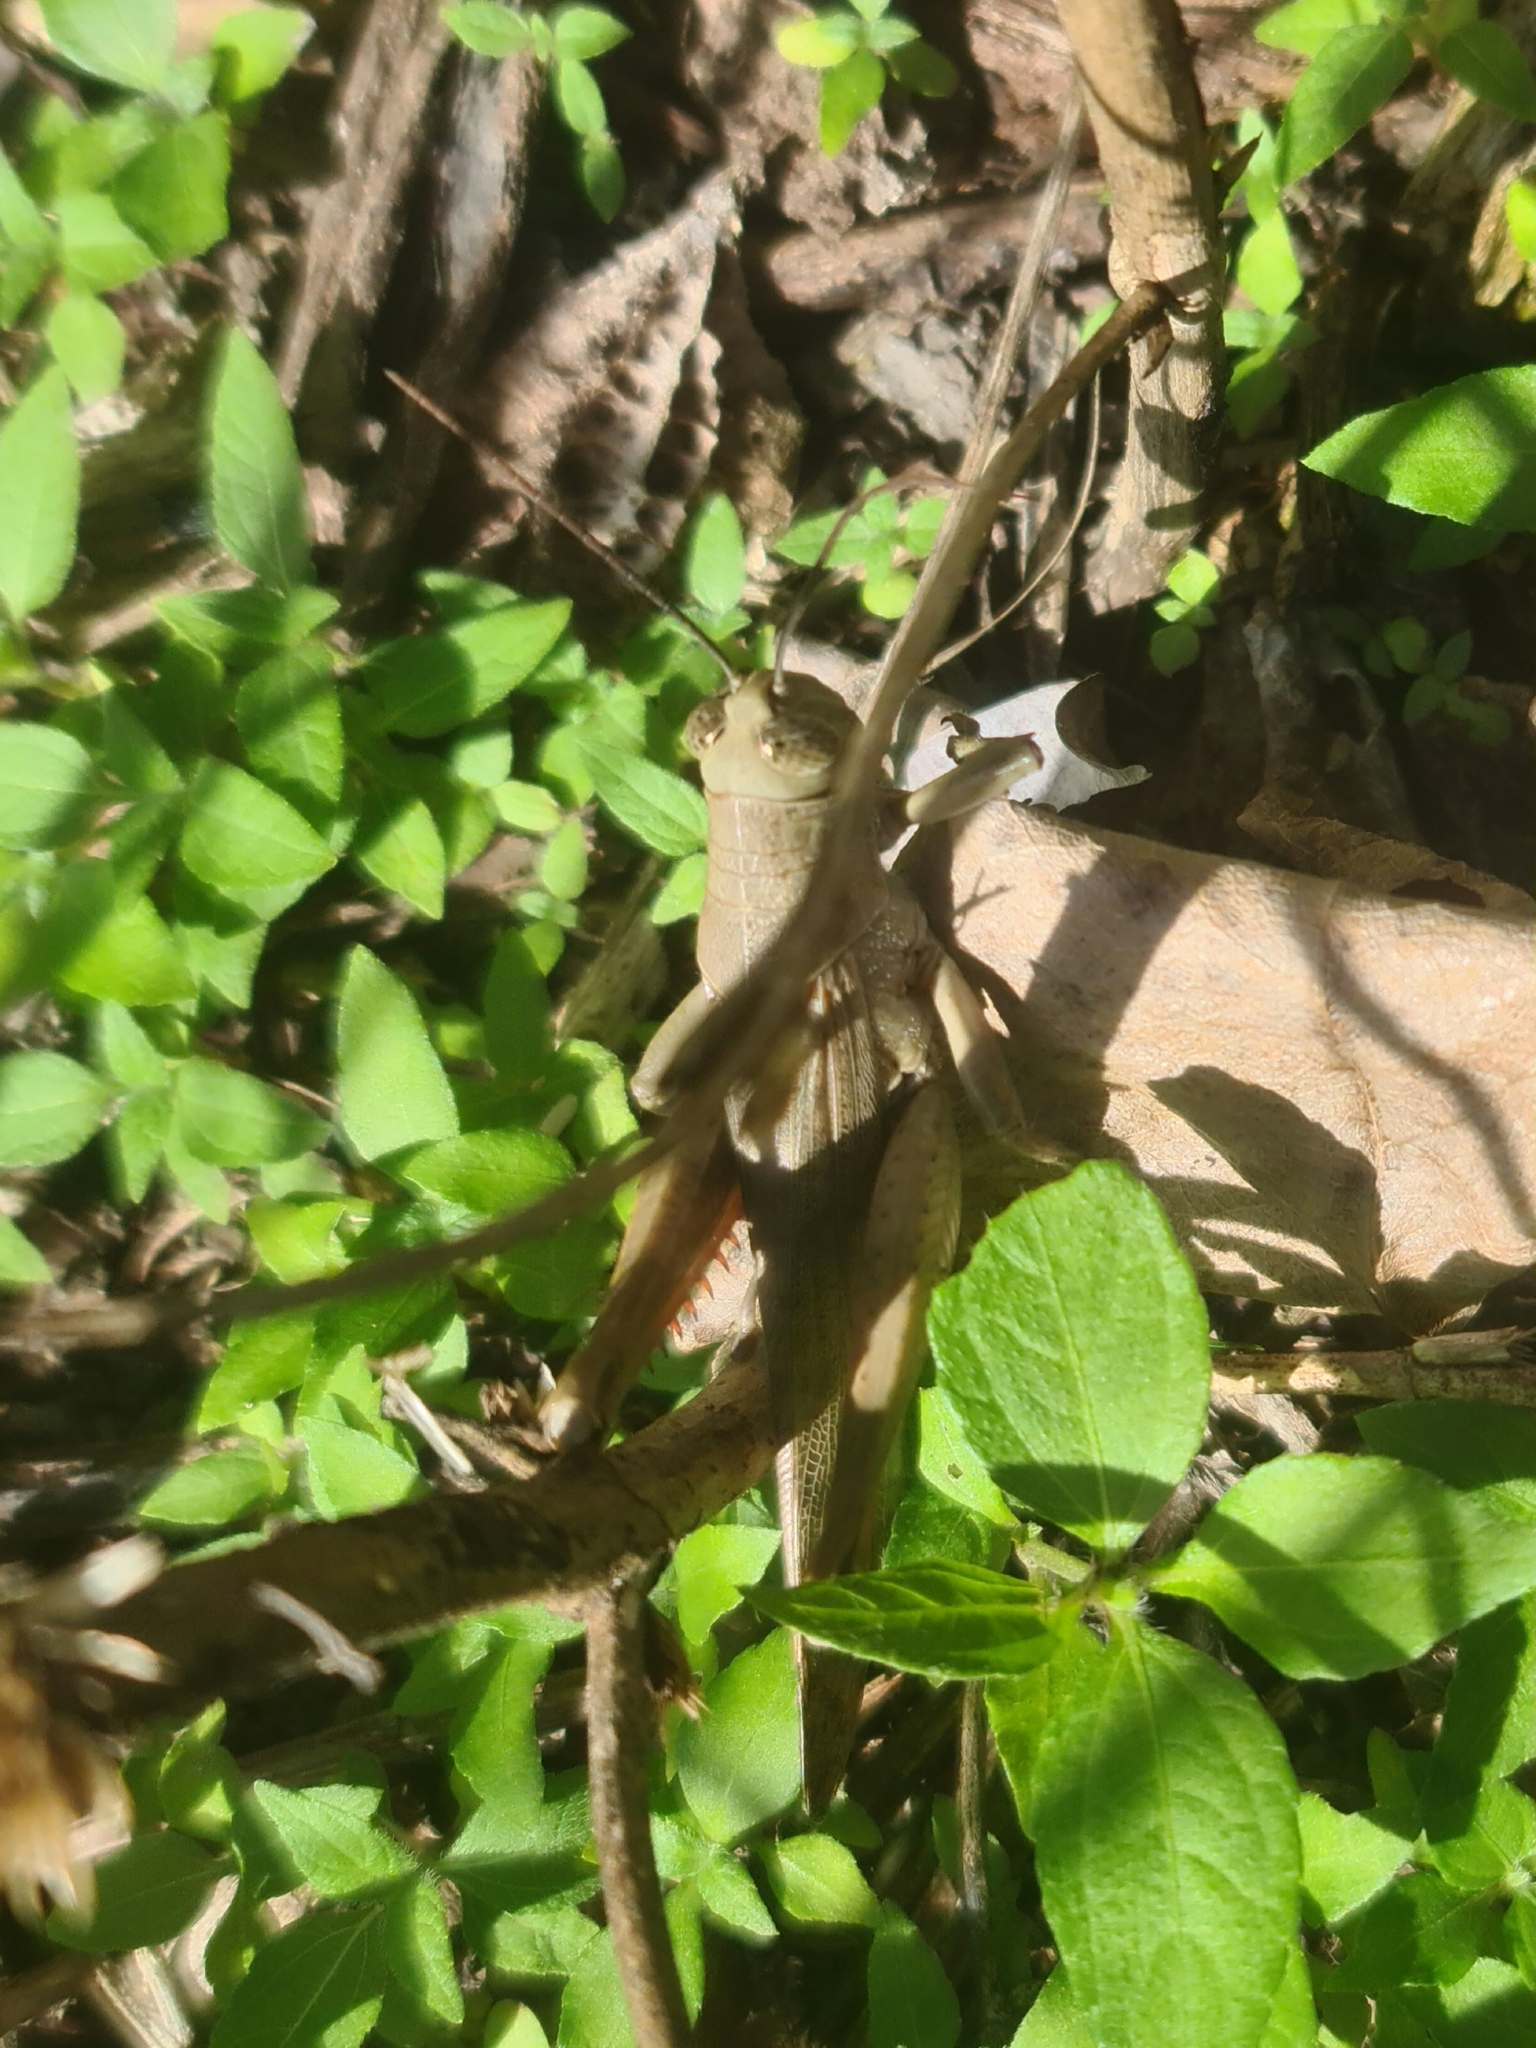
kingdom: Animalia
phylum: Arthropoda
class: Insecta
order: Orthoptera
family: Acrididae
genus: Valanga
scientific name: Valanga irregularis
